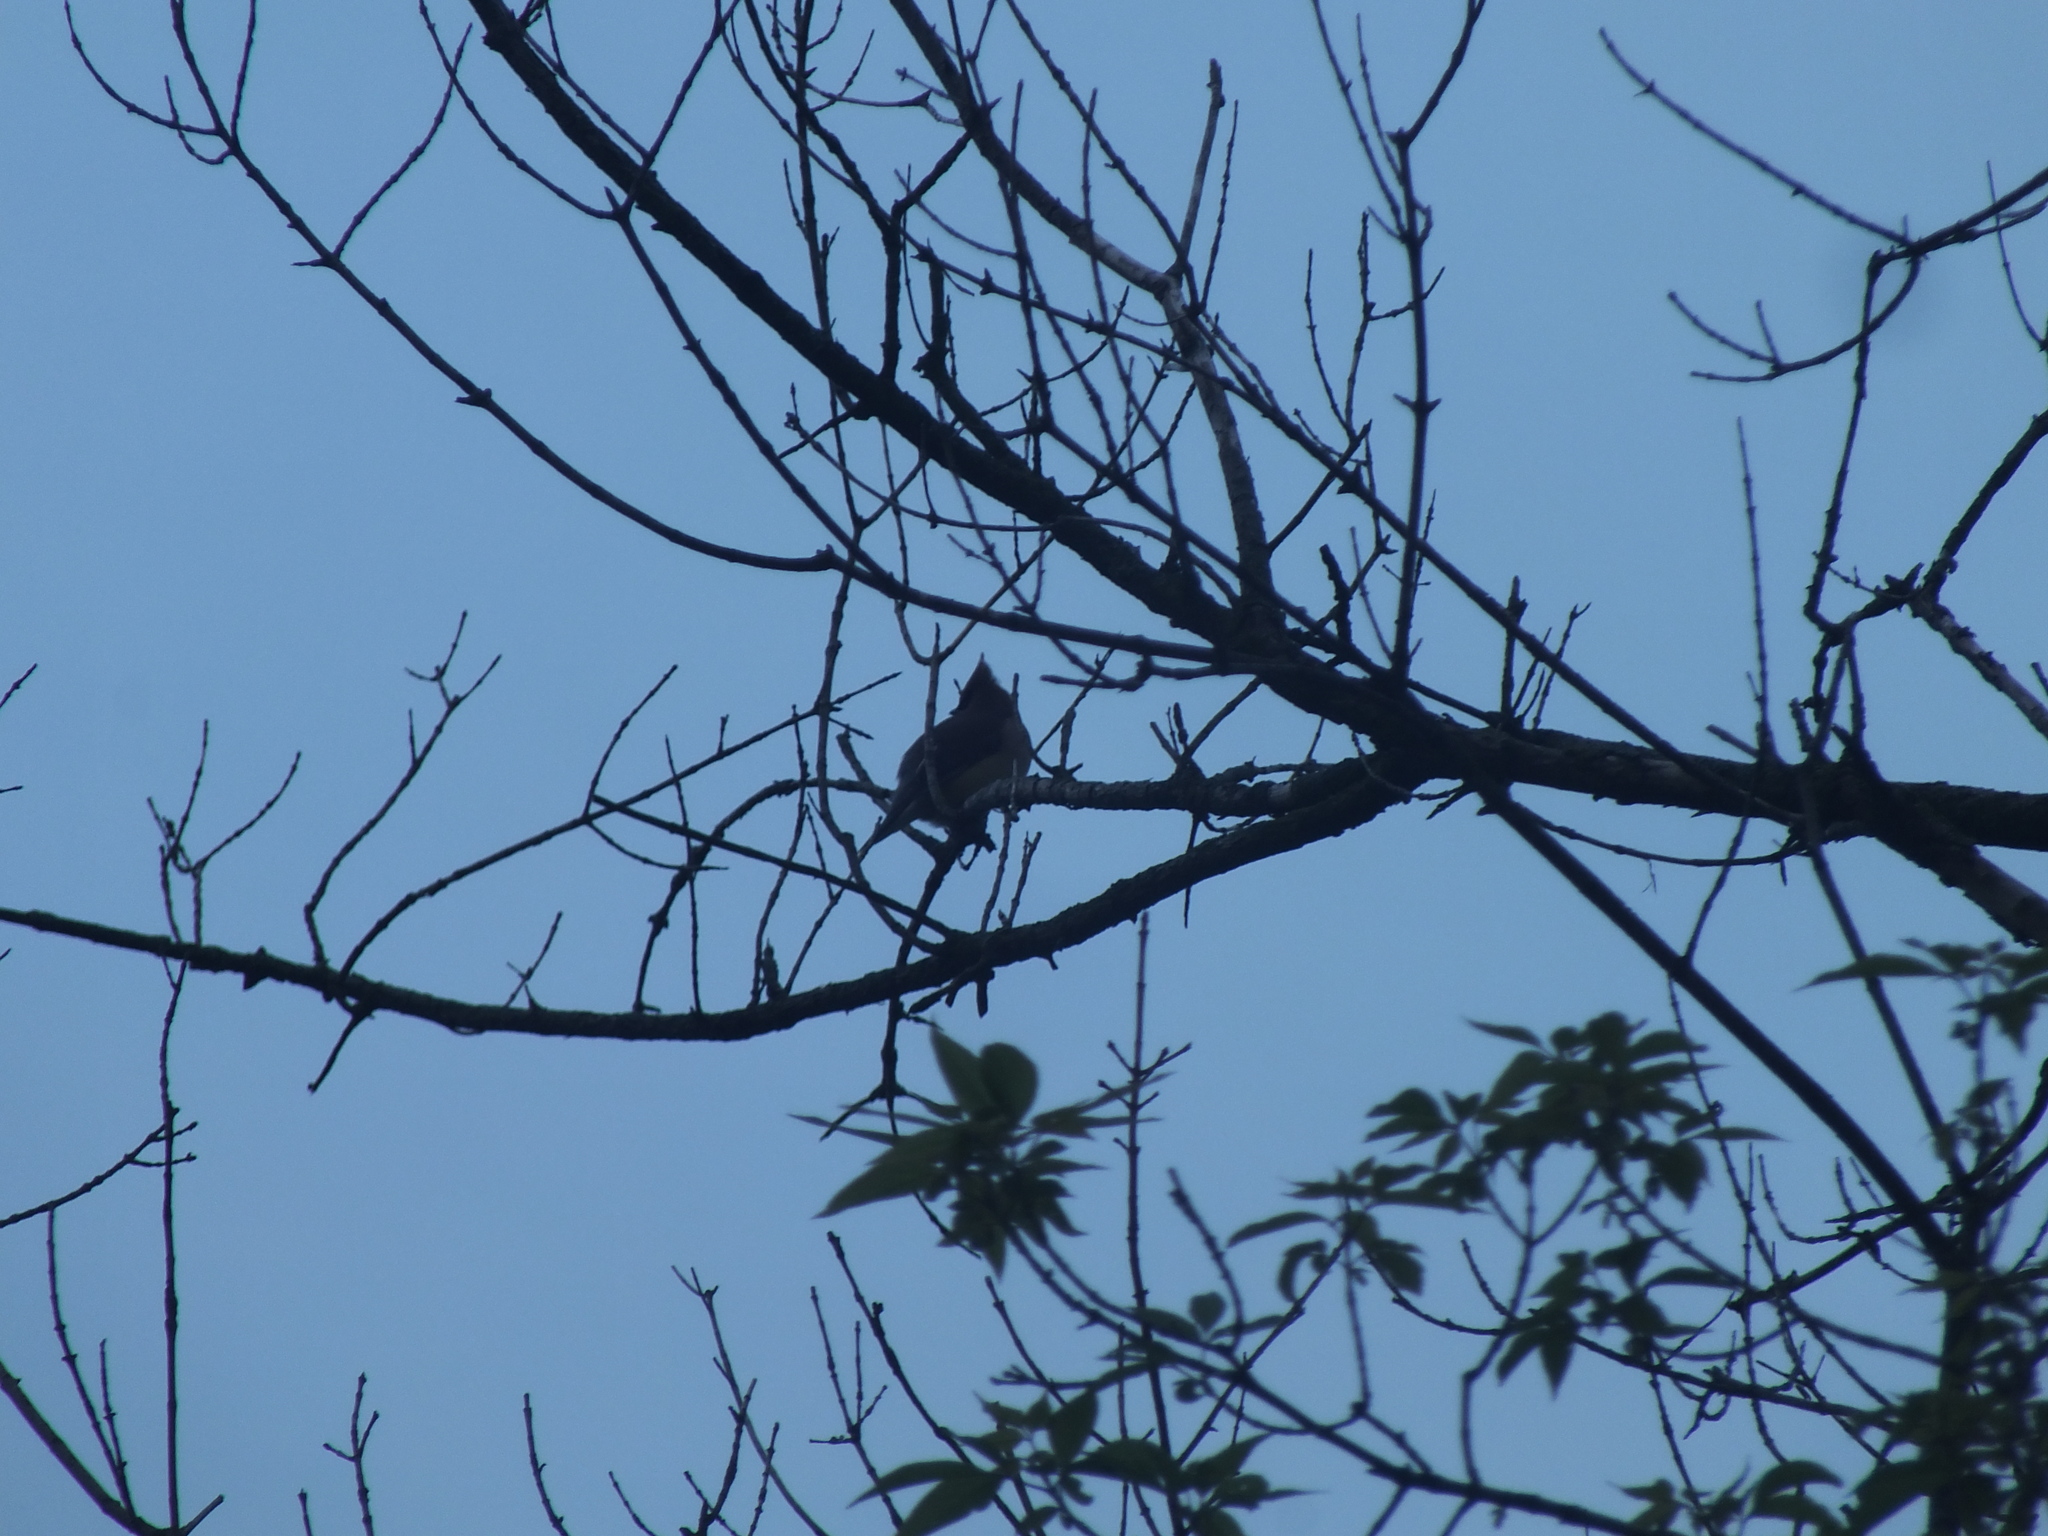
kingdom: Animalia
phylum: Chordata
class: Aves
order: Passeriformes
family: Bombycillidae
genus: Bombycilla
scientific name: Bombycilla cedrorum
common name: Cedar waxwing
